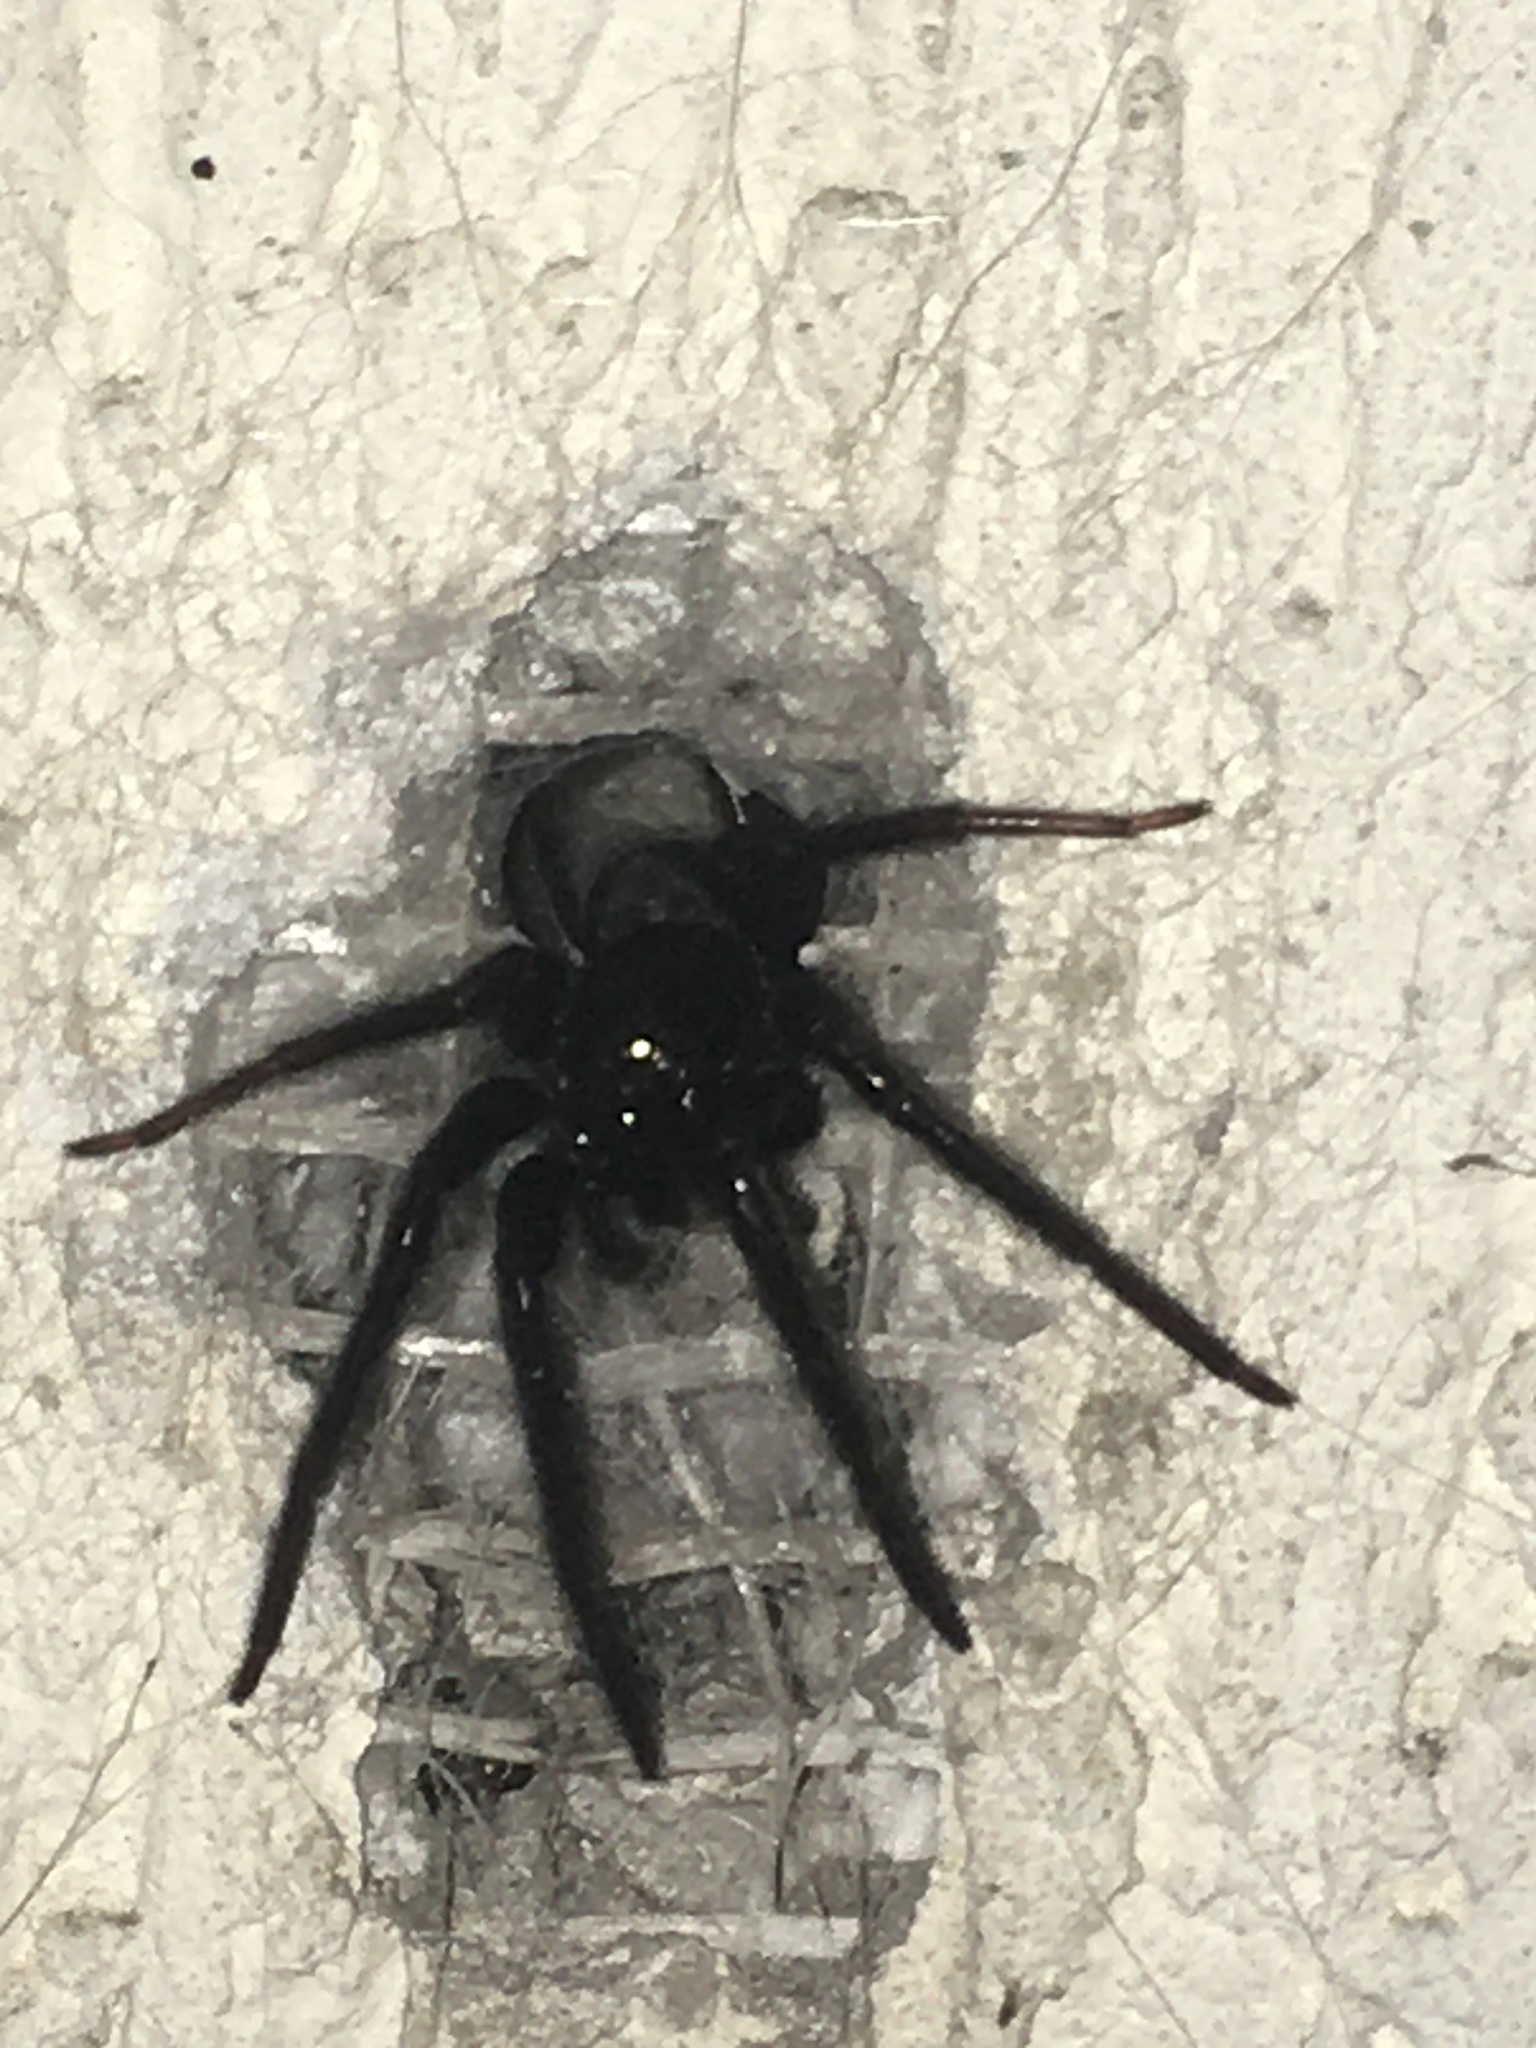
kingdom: Animalia
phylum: Arthropoda
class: Arachnida
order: Araneae
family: Segestriidae
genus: Segestria
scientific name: Segestria florentina
